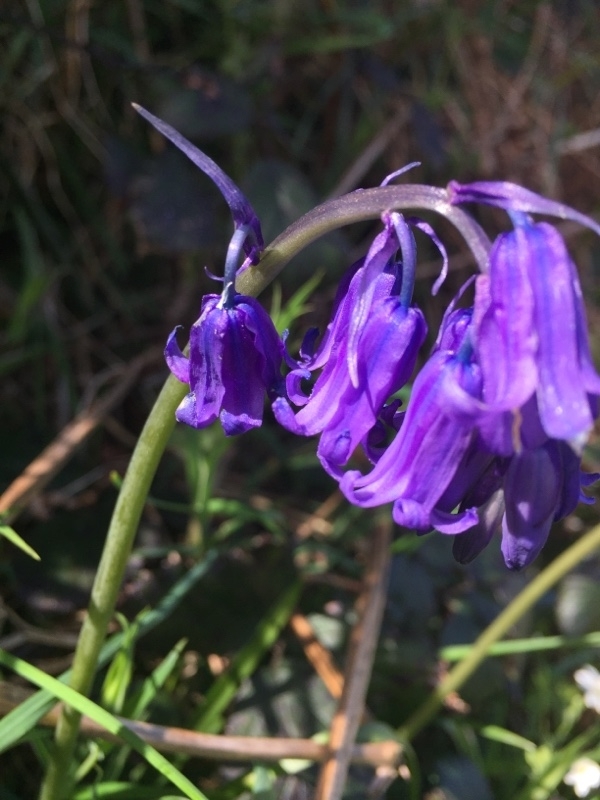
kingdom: Plantae
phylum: Tracheophyta
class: Liliopsida
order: Asparagales
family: Asparagaceae
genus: Hyacinthoides
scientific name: Hyacinthoides non-scripta
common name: Bluebell
